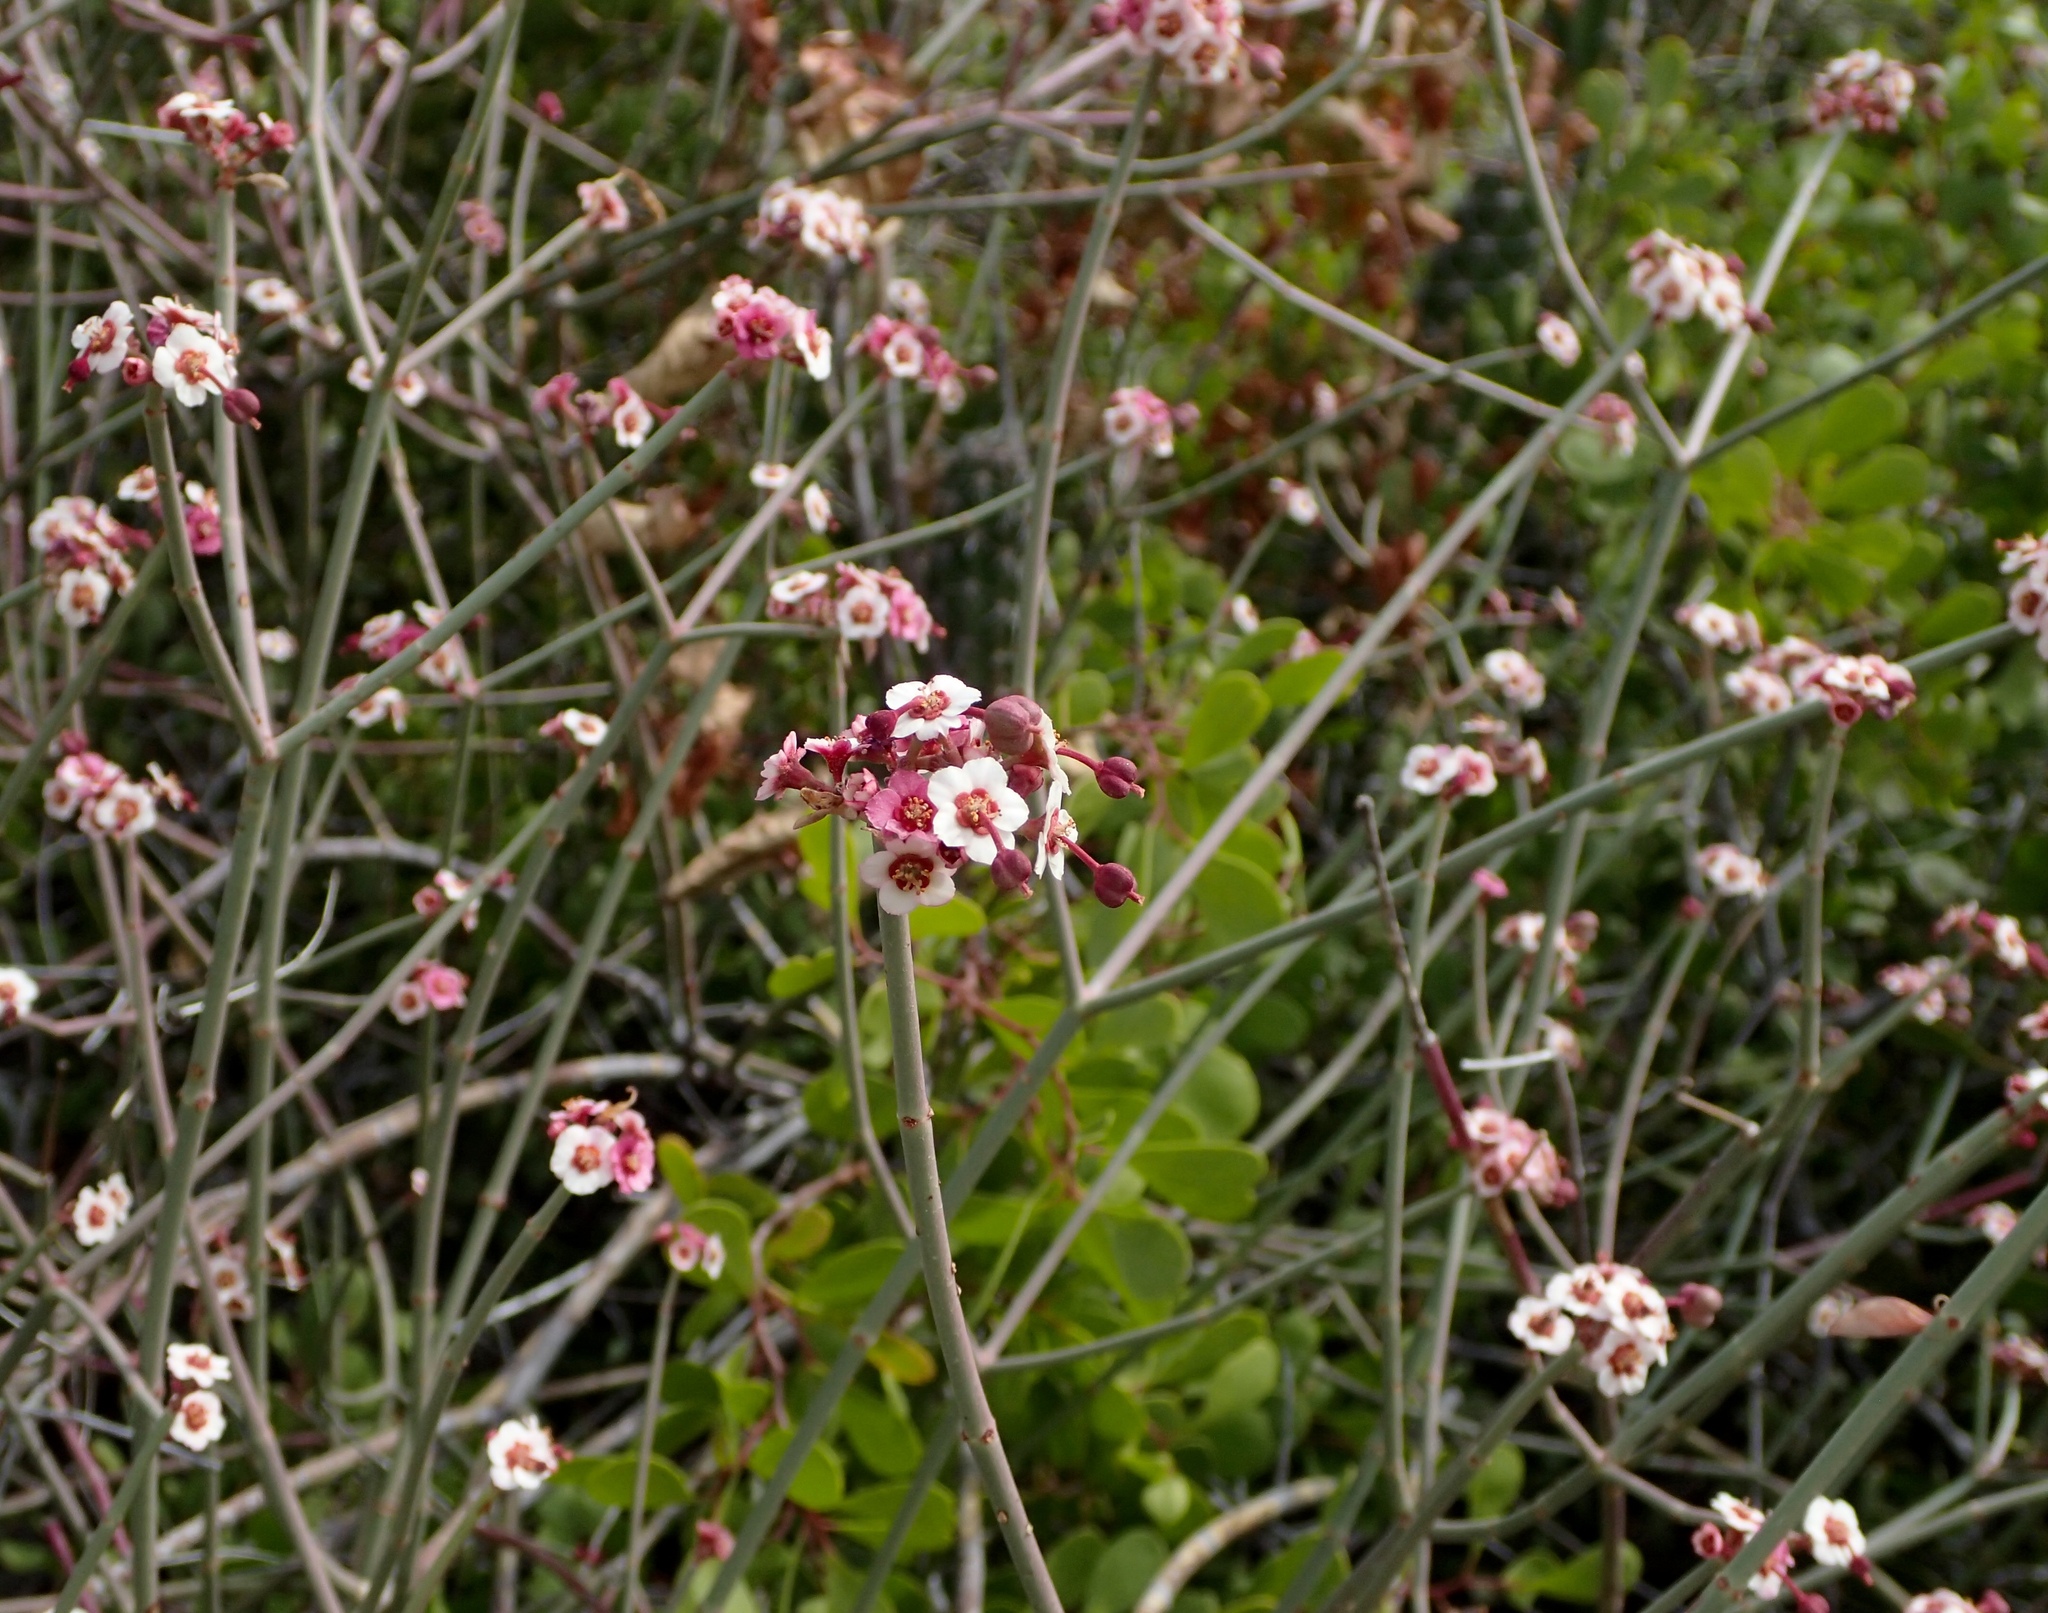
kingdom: Plantae
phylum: Tracheophyta
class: Magnoliopsida
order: Malpighiales
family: Euphorbiaceae
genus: Euphorbia
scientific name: Euphorbia xanti
